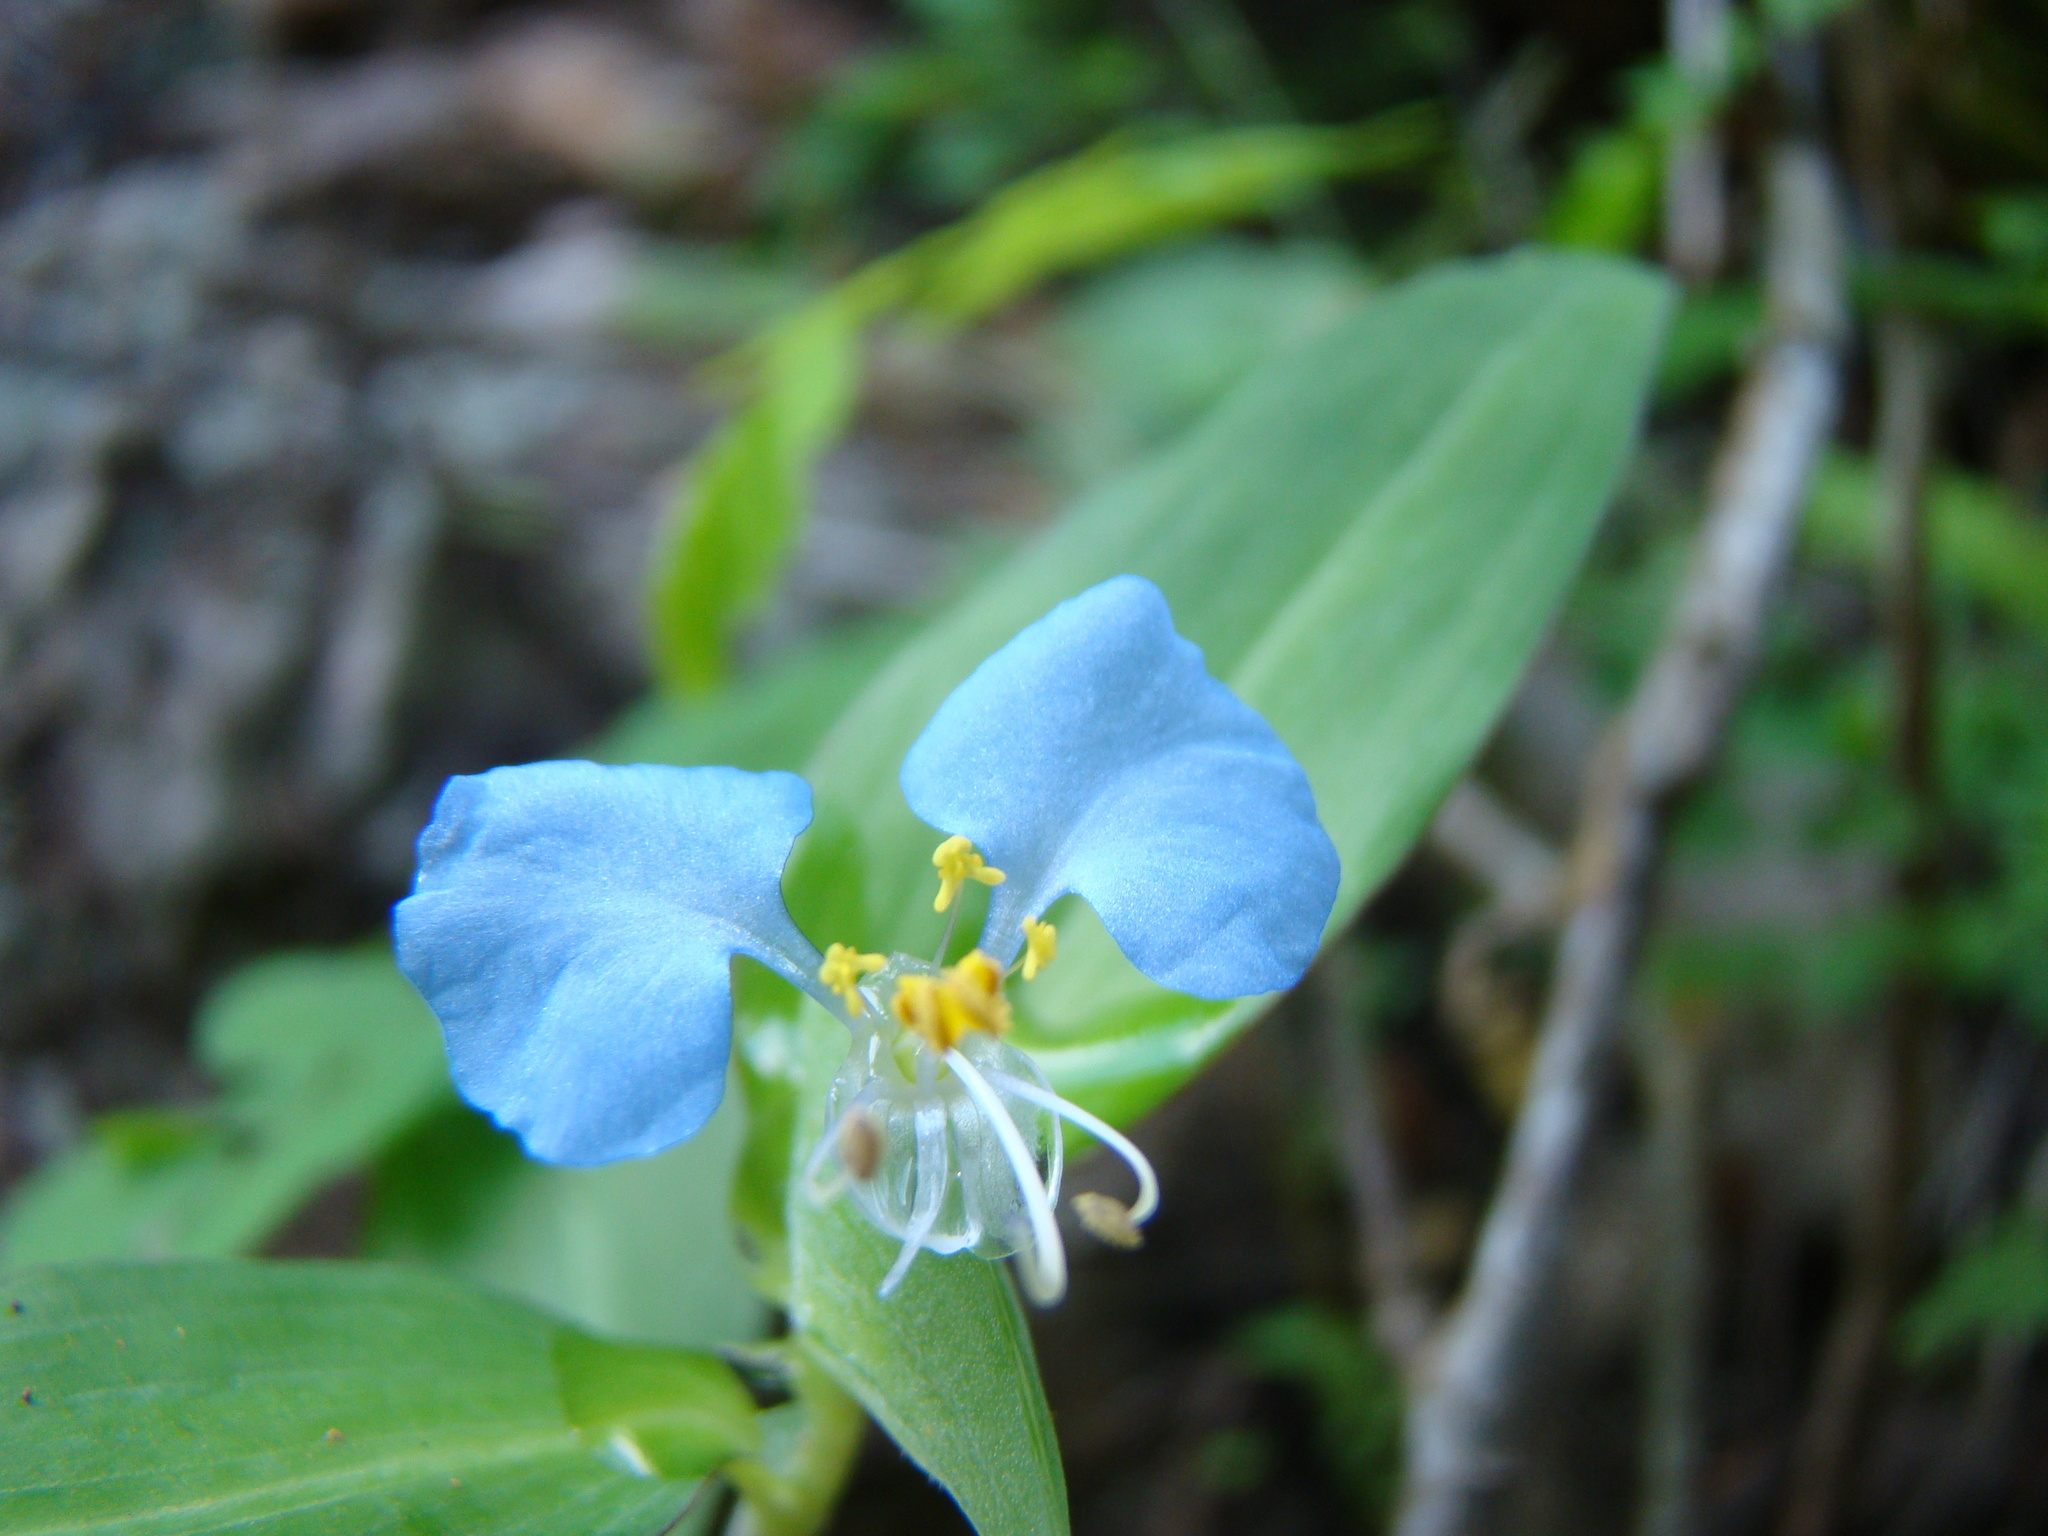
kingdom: Plantae
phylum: Tracheophyta
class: Liliopsida
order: Commelinales
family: Commelinaceae
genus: Commelina
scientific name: Commelina erecta
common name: Blousel blommetjie
